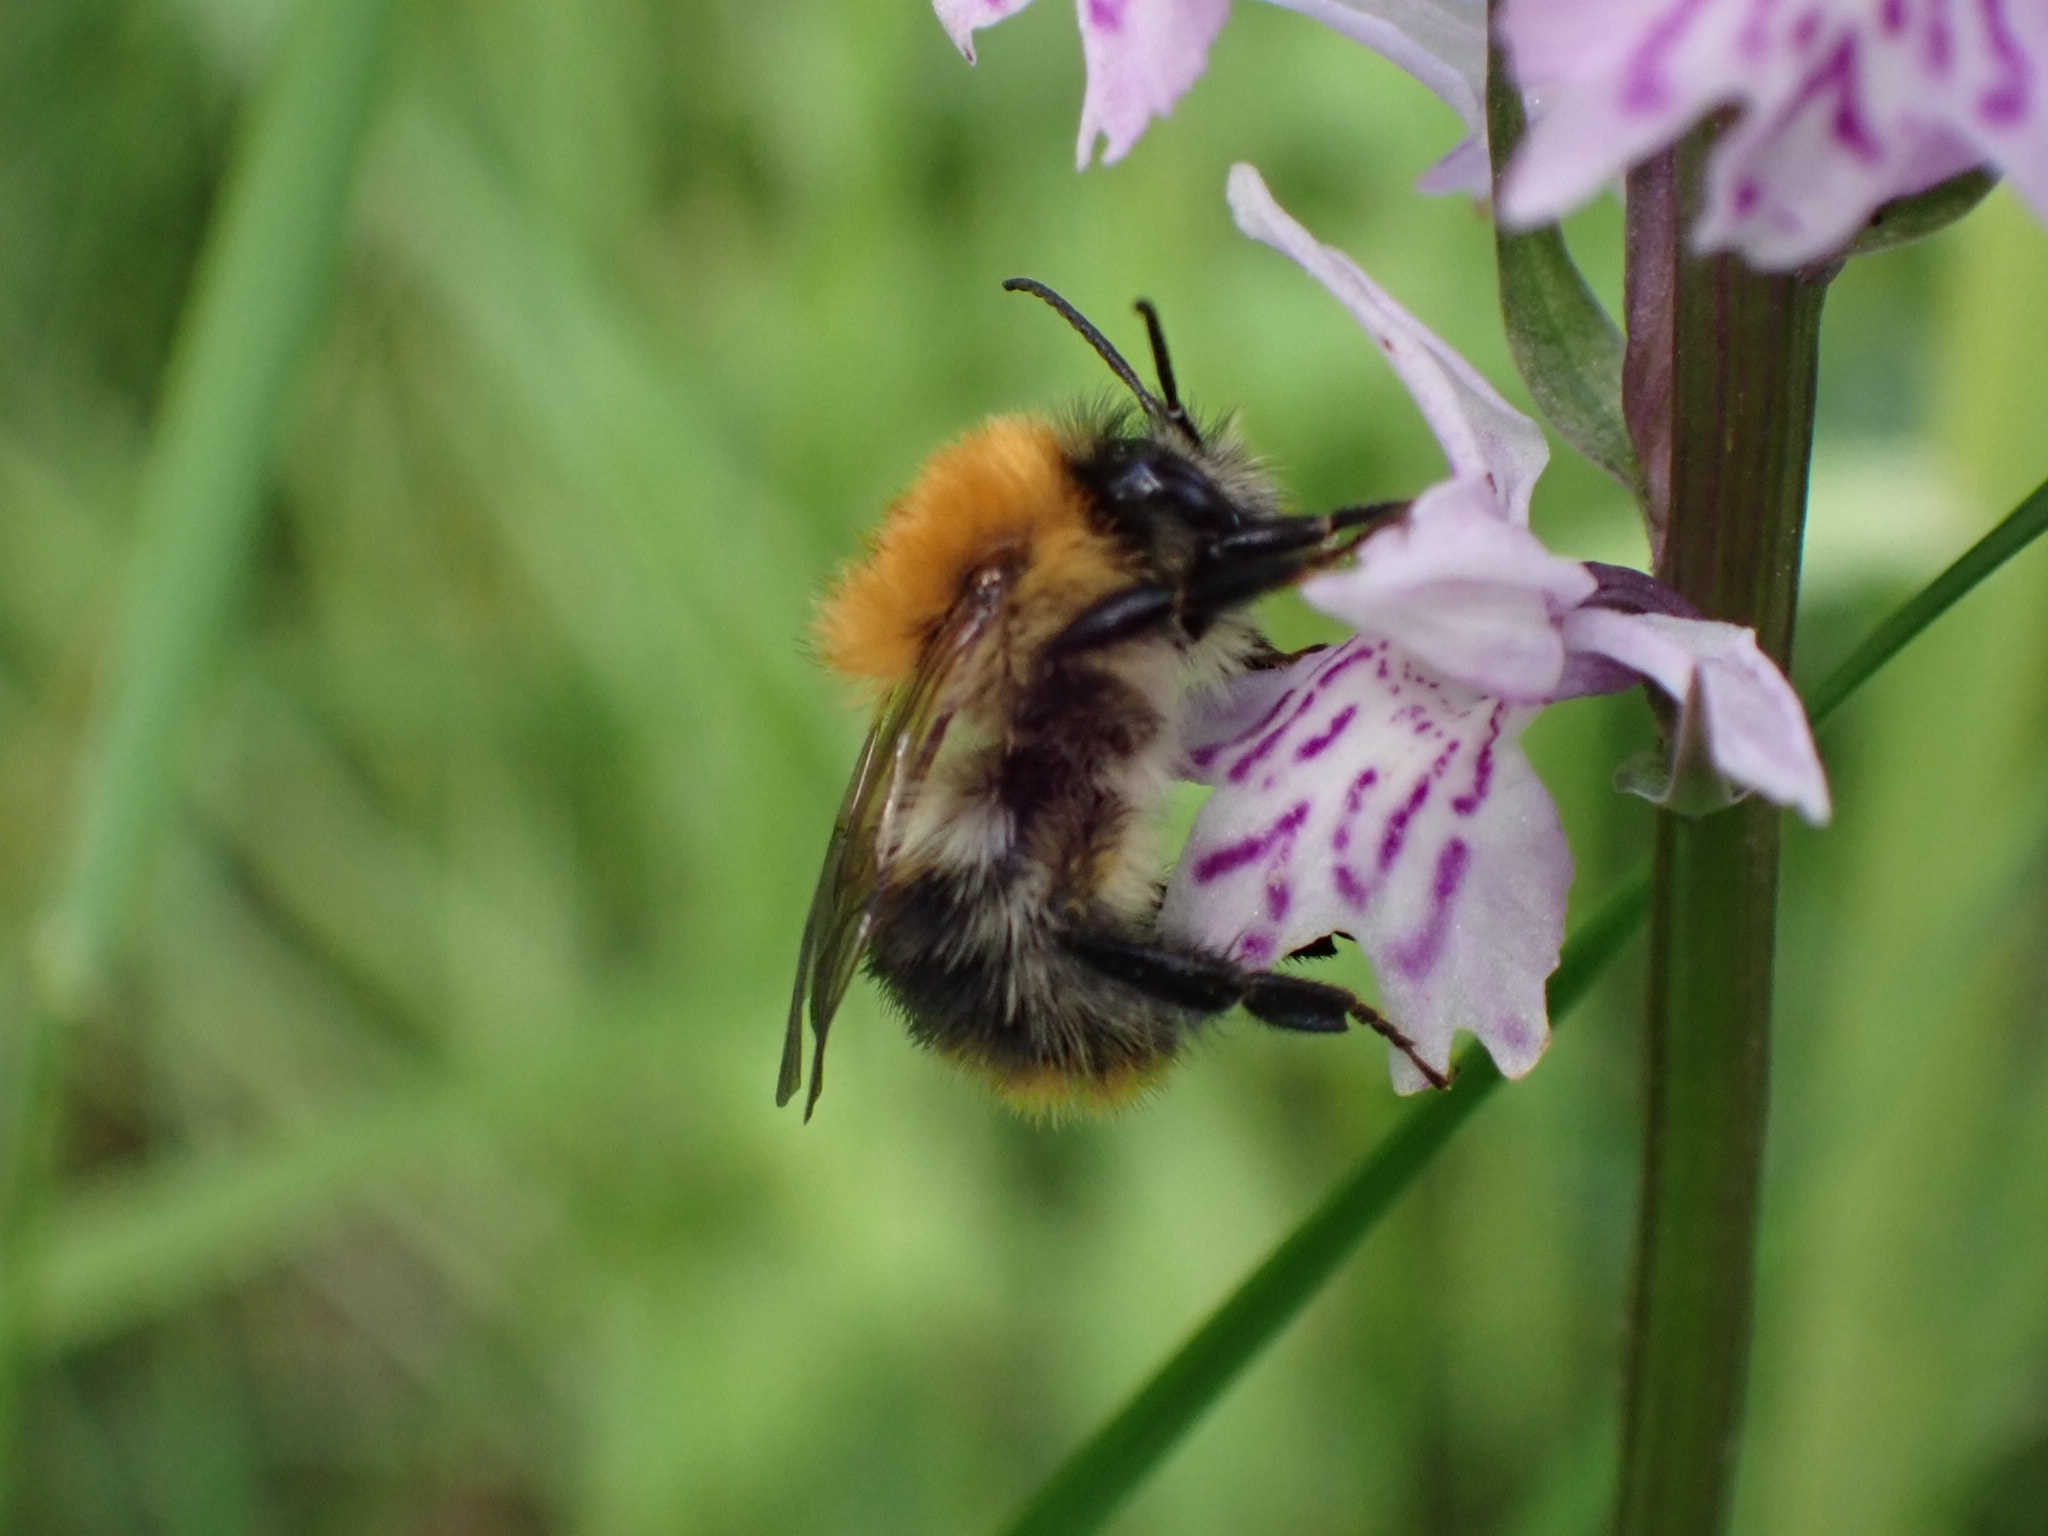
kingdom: Animalia
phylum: Arthropoda
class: Insecta
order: Hymenoptera
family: Apidae
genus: Bombus
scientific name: Bombus pascuorum
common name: Common carder bee
